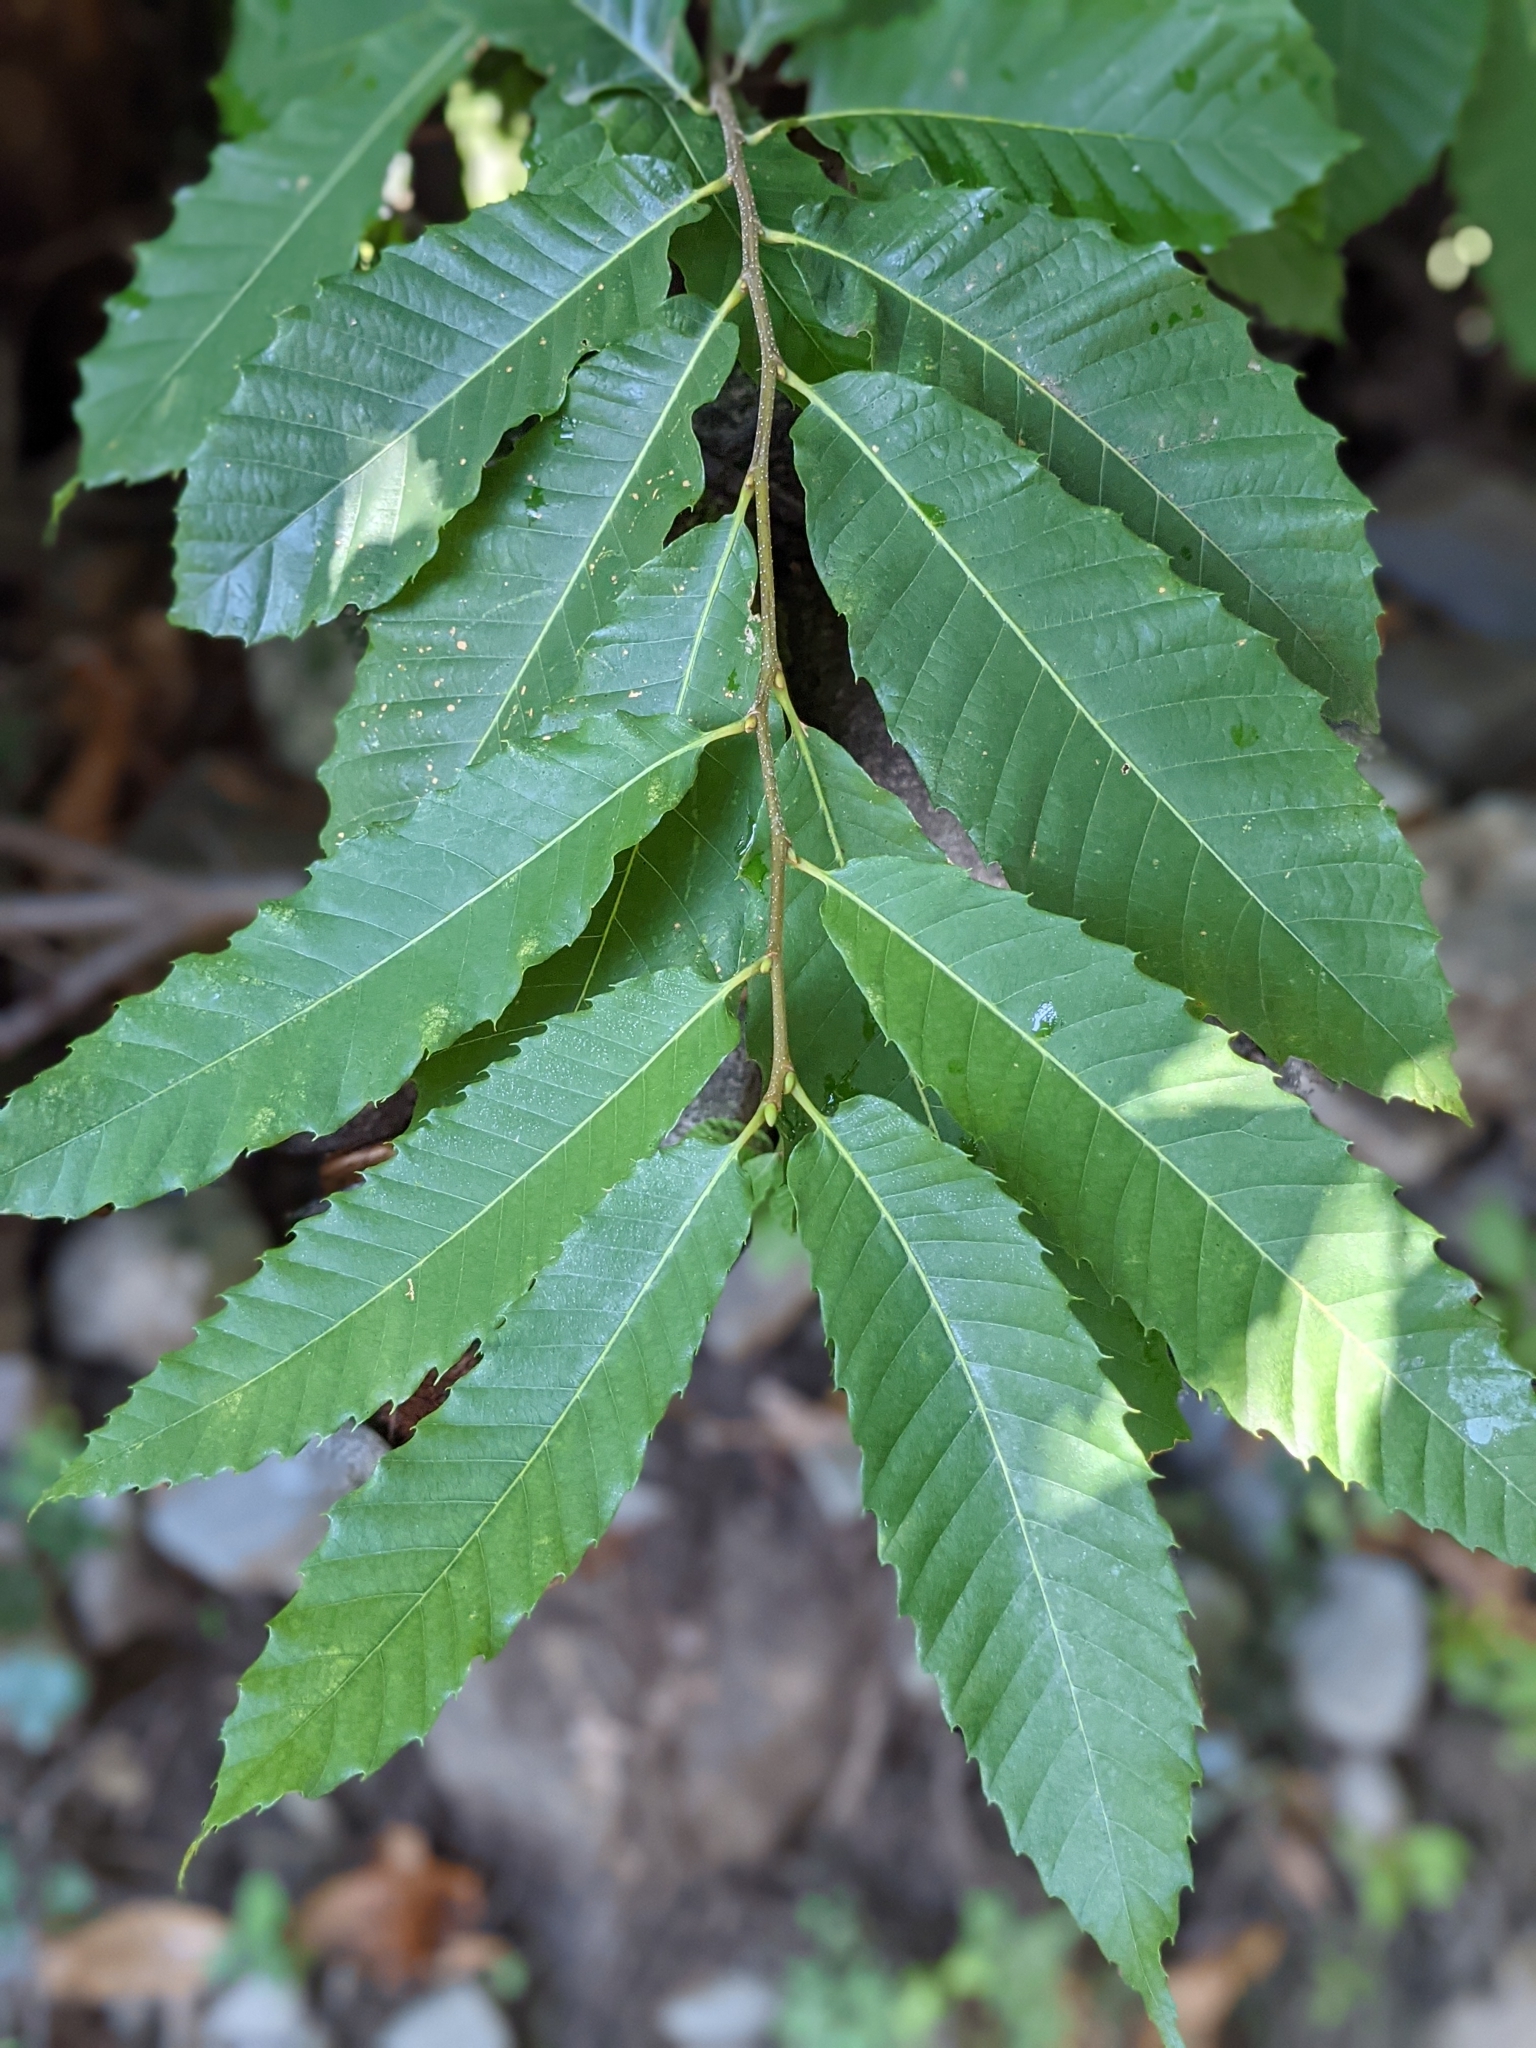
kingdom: Plantae
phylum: Tracheophyta
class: Magnoliopsida
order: Fagales
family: Fagaceae
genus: Castanea
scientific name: Castanea sativa
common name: Sweet chestnut
